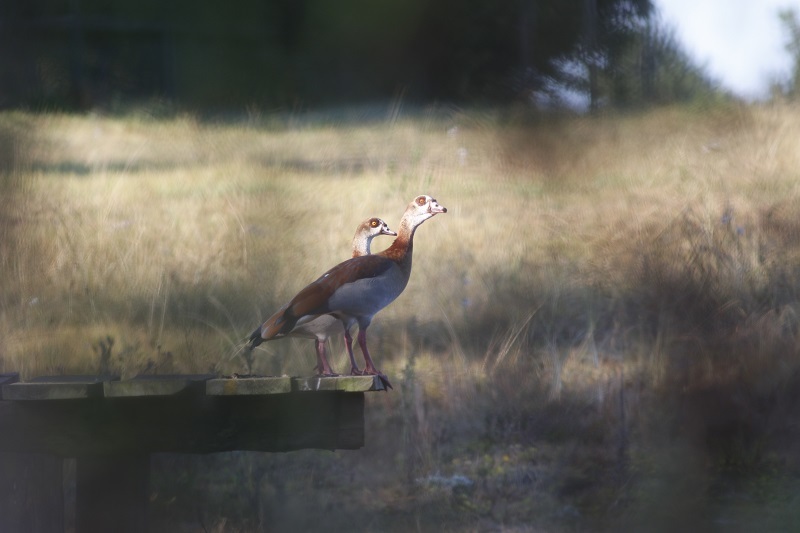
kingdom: Animalia
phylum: Chordata
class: Aves
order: Anseriformes
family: Anatidae
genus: Alopochen
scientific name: Alopochen aegyptiaca
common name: Egyptian goose
